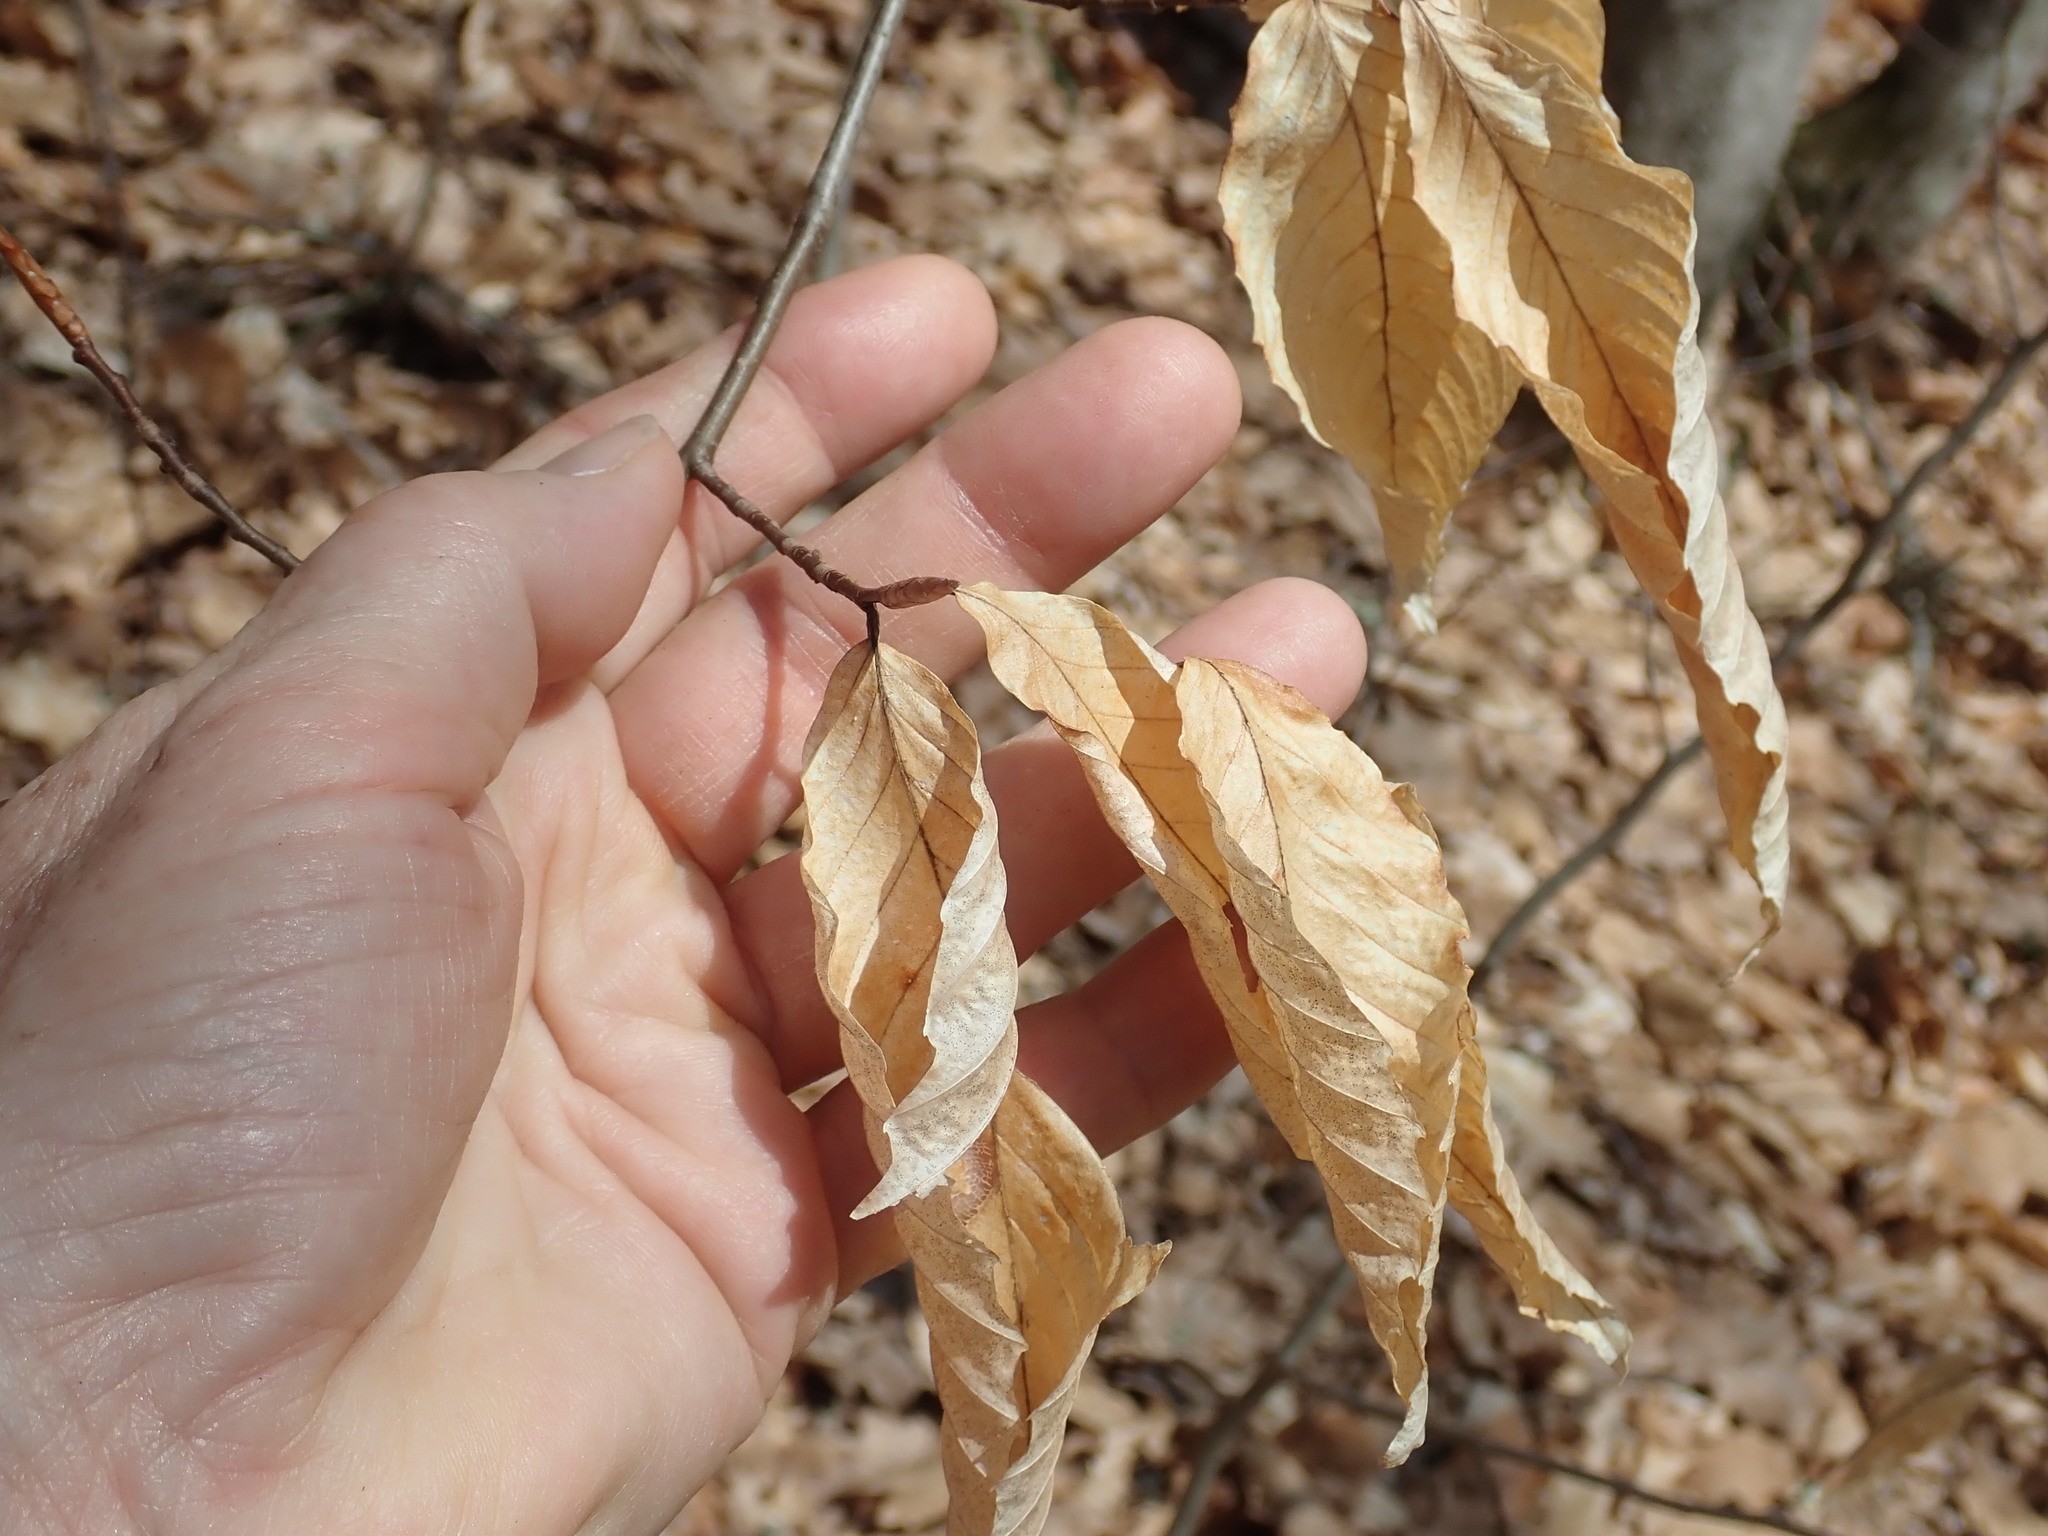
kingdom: Plantae
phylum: Tracheophyta
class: Magnoliopsida
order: Fagales
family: Fagaceae
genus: Fagus
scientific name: Fagus grandifolia
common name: American beech
